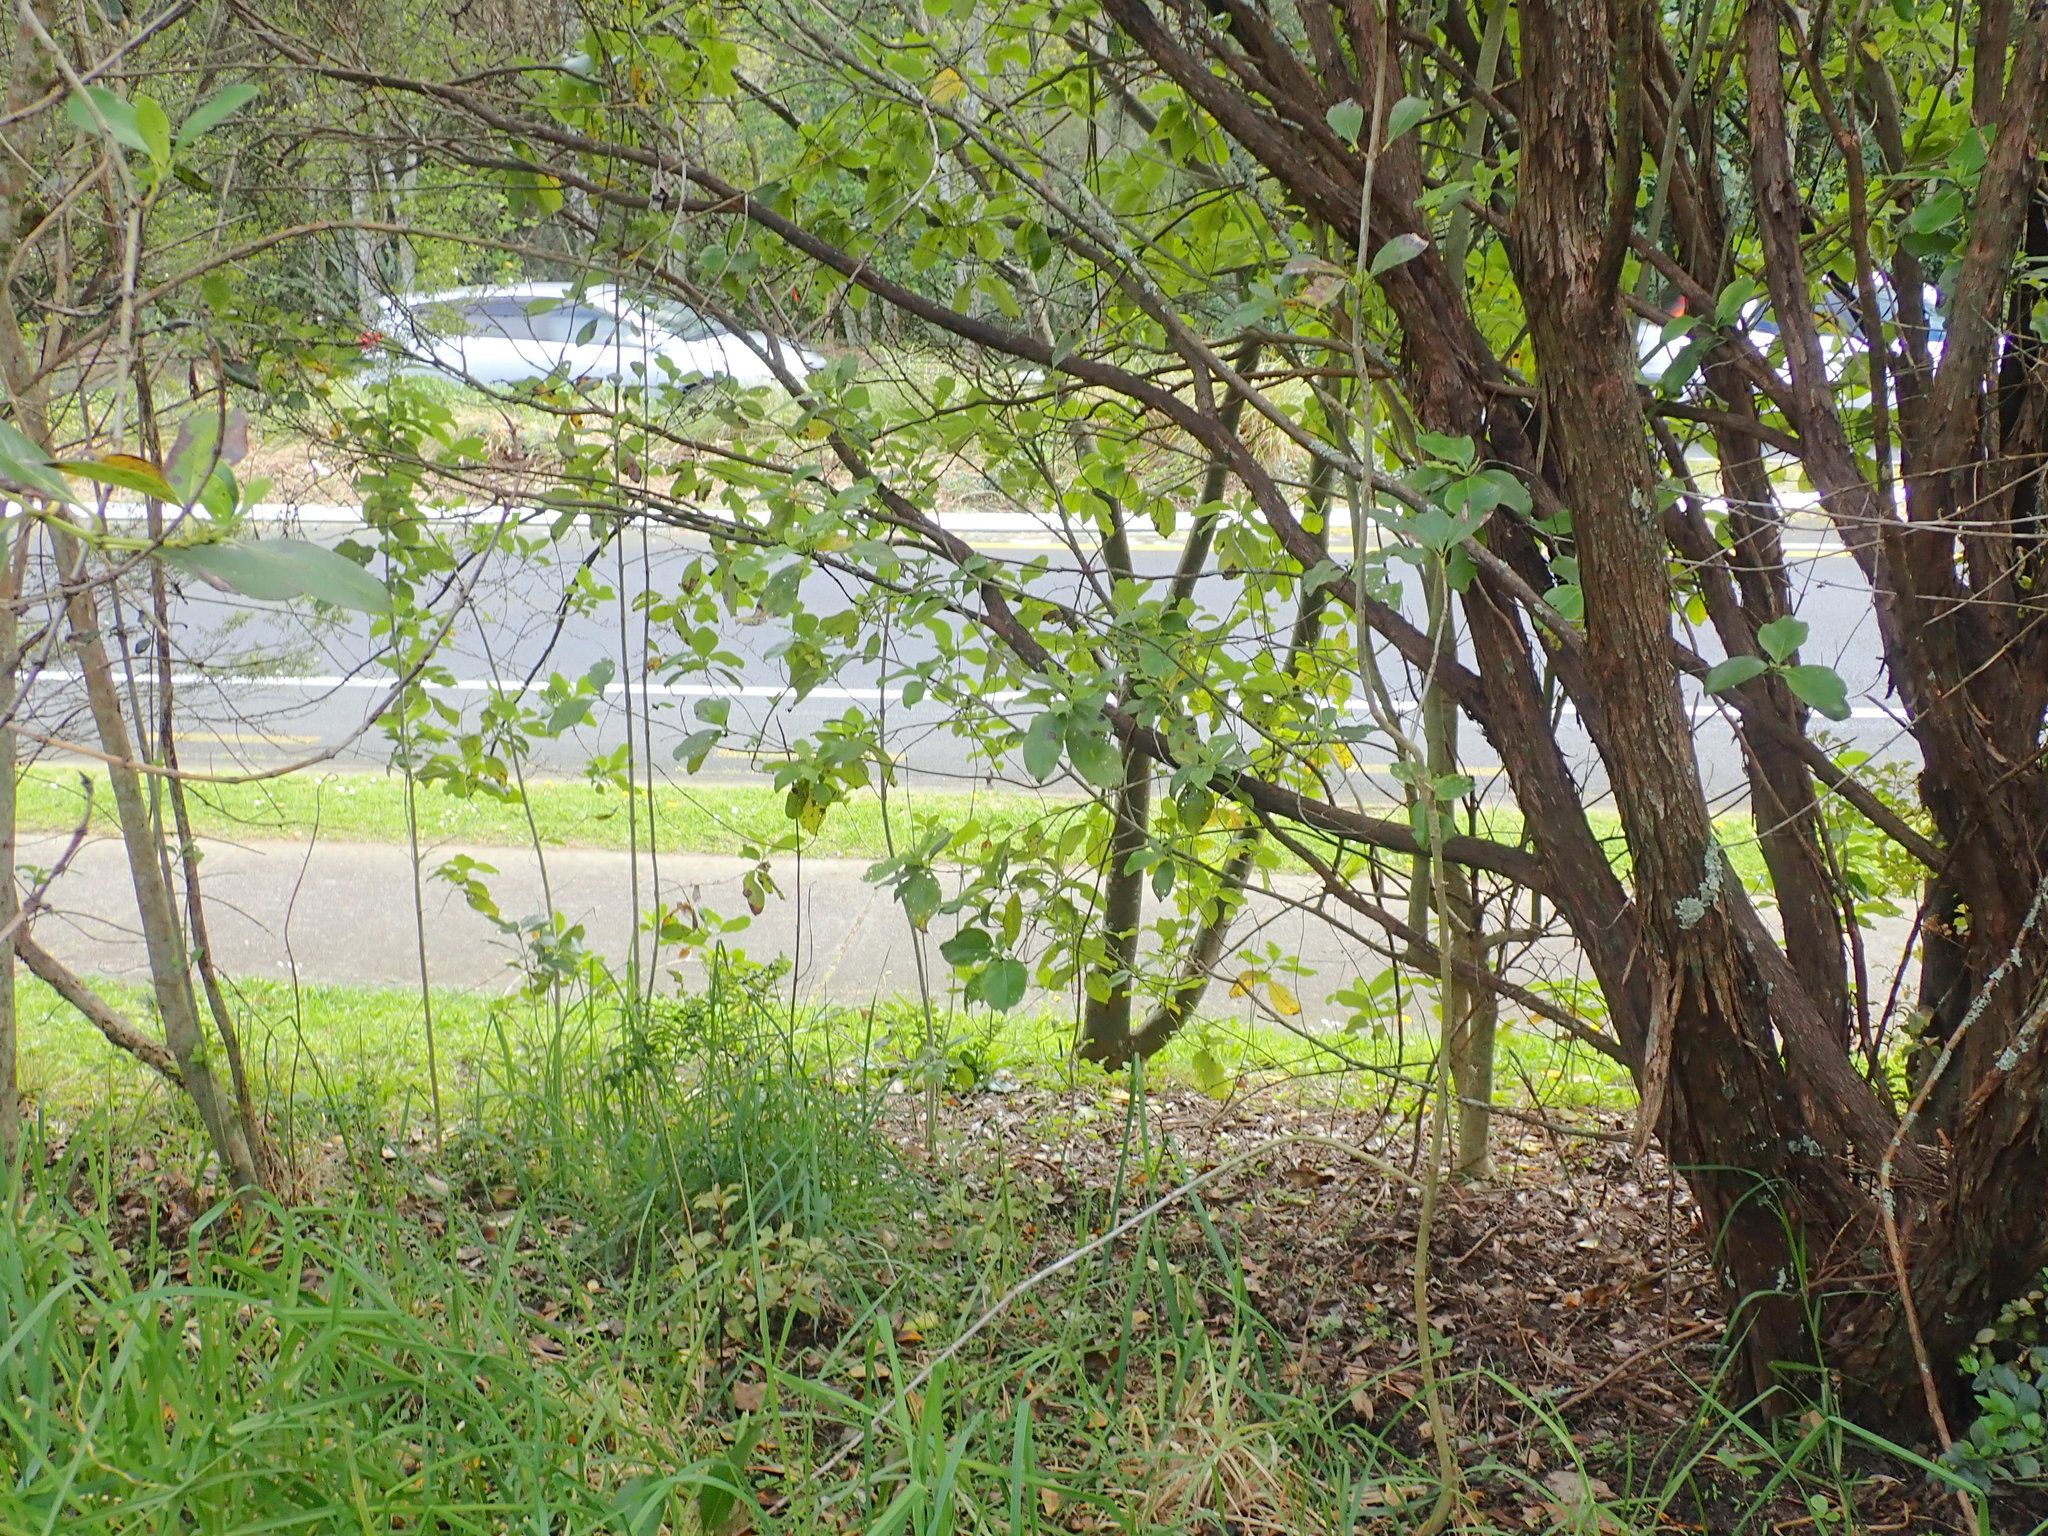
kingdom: Plantae
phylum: Tracheophyta
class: Liliopsida
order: Poales
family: Poaceae
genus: Cenchrus
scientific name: Cenchrus clandestinus
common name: Kikuyugrass
